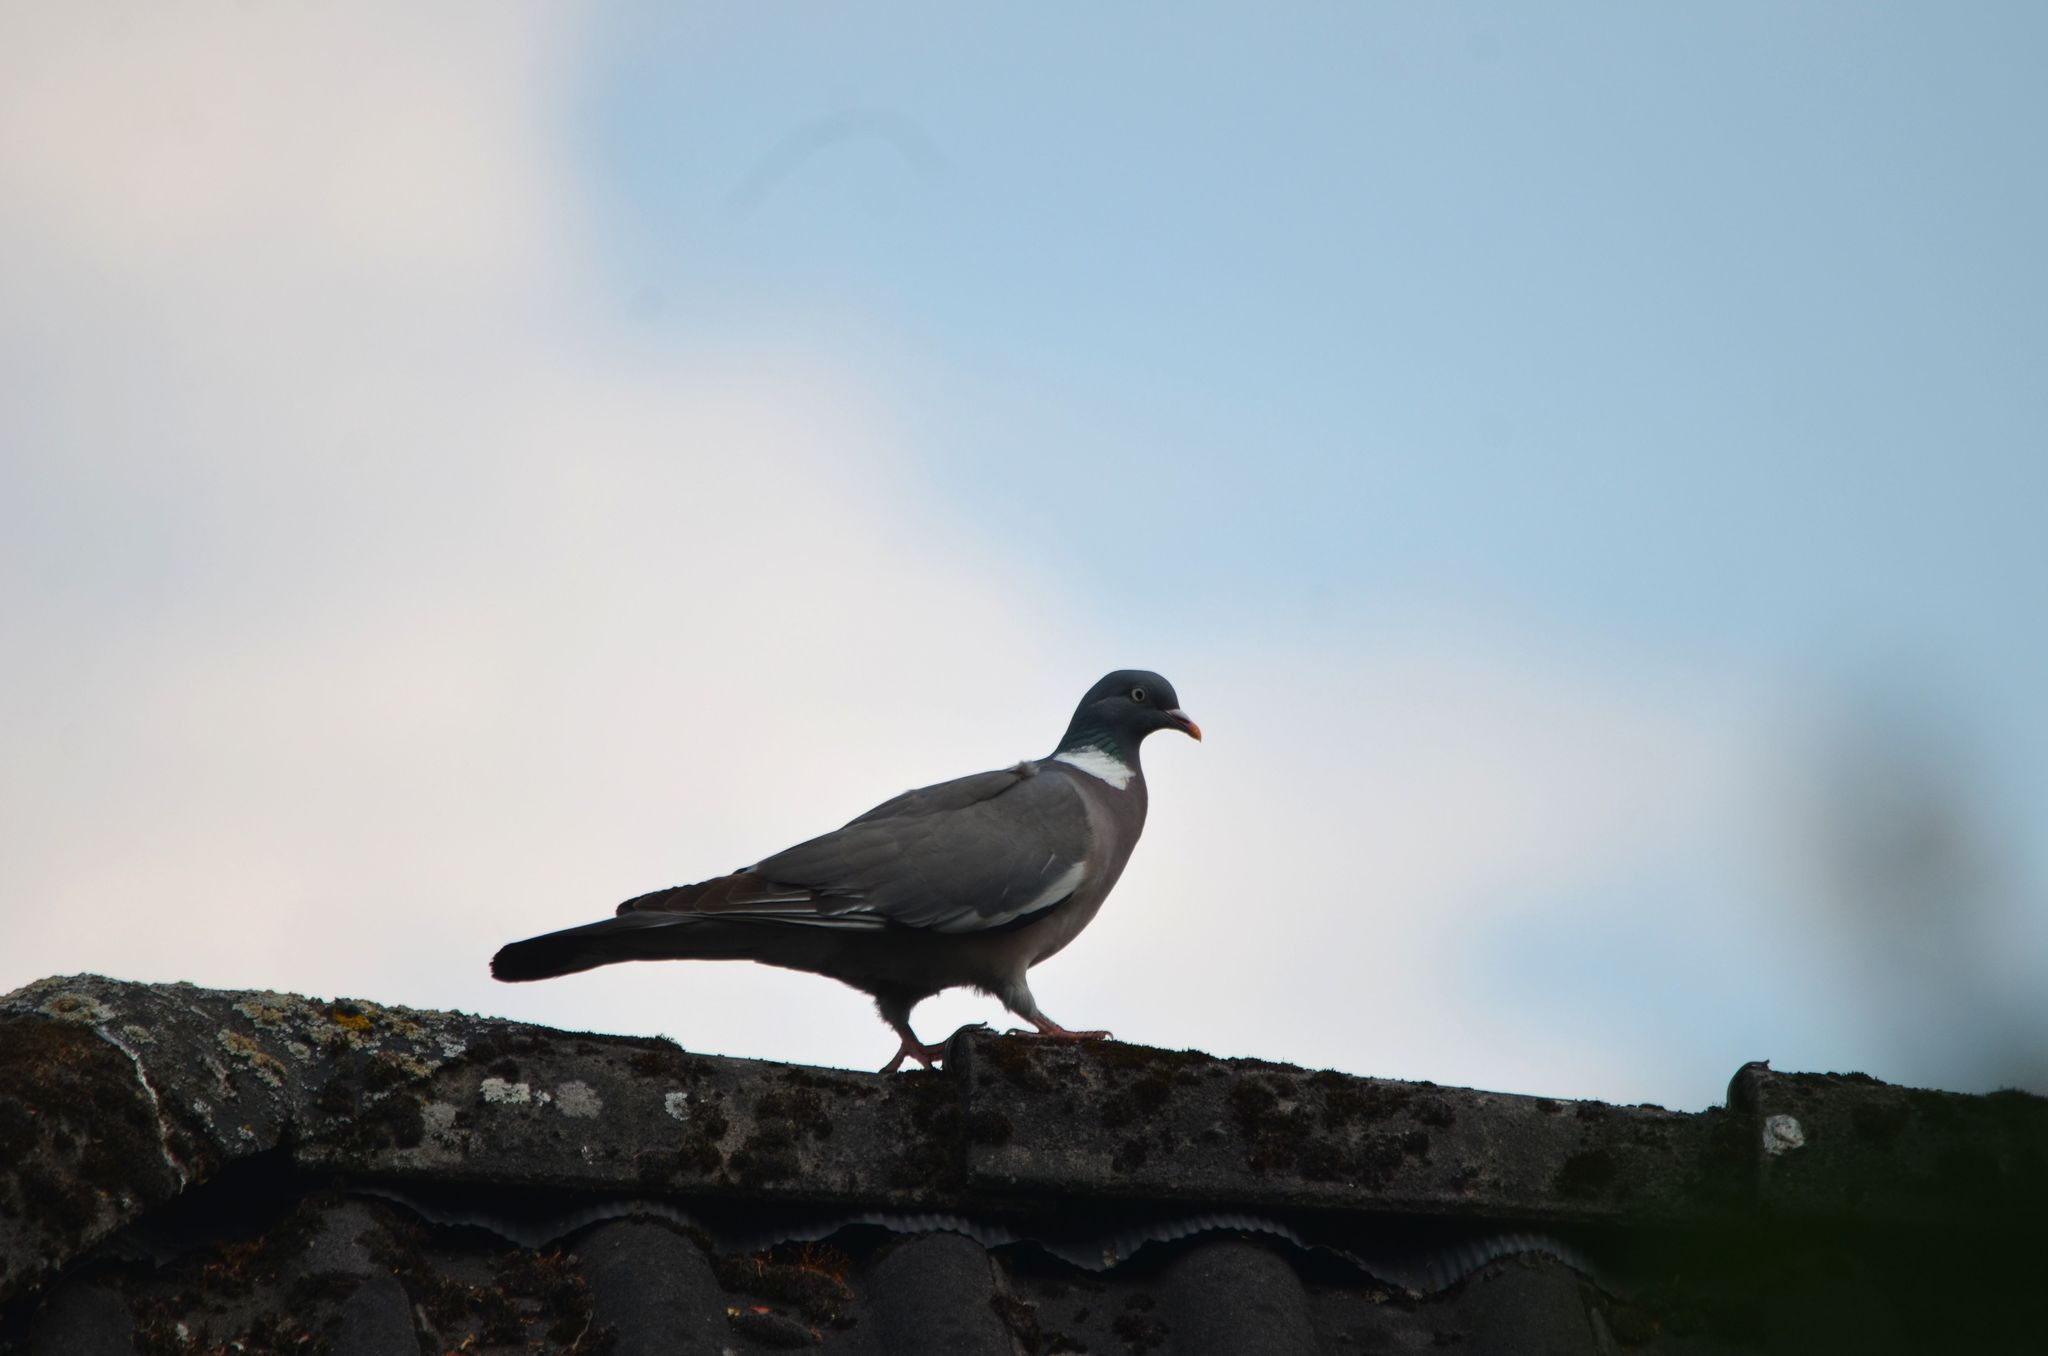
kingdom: Animalia
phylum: Chordata
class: Aves
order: Columbiformes
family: Columbidae
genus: Columba
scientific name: Columba palumbus
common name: Common wood pigeon
